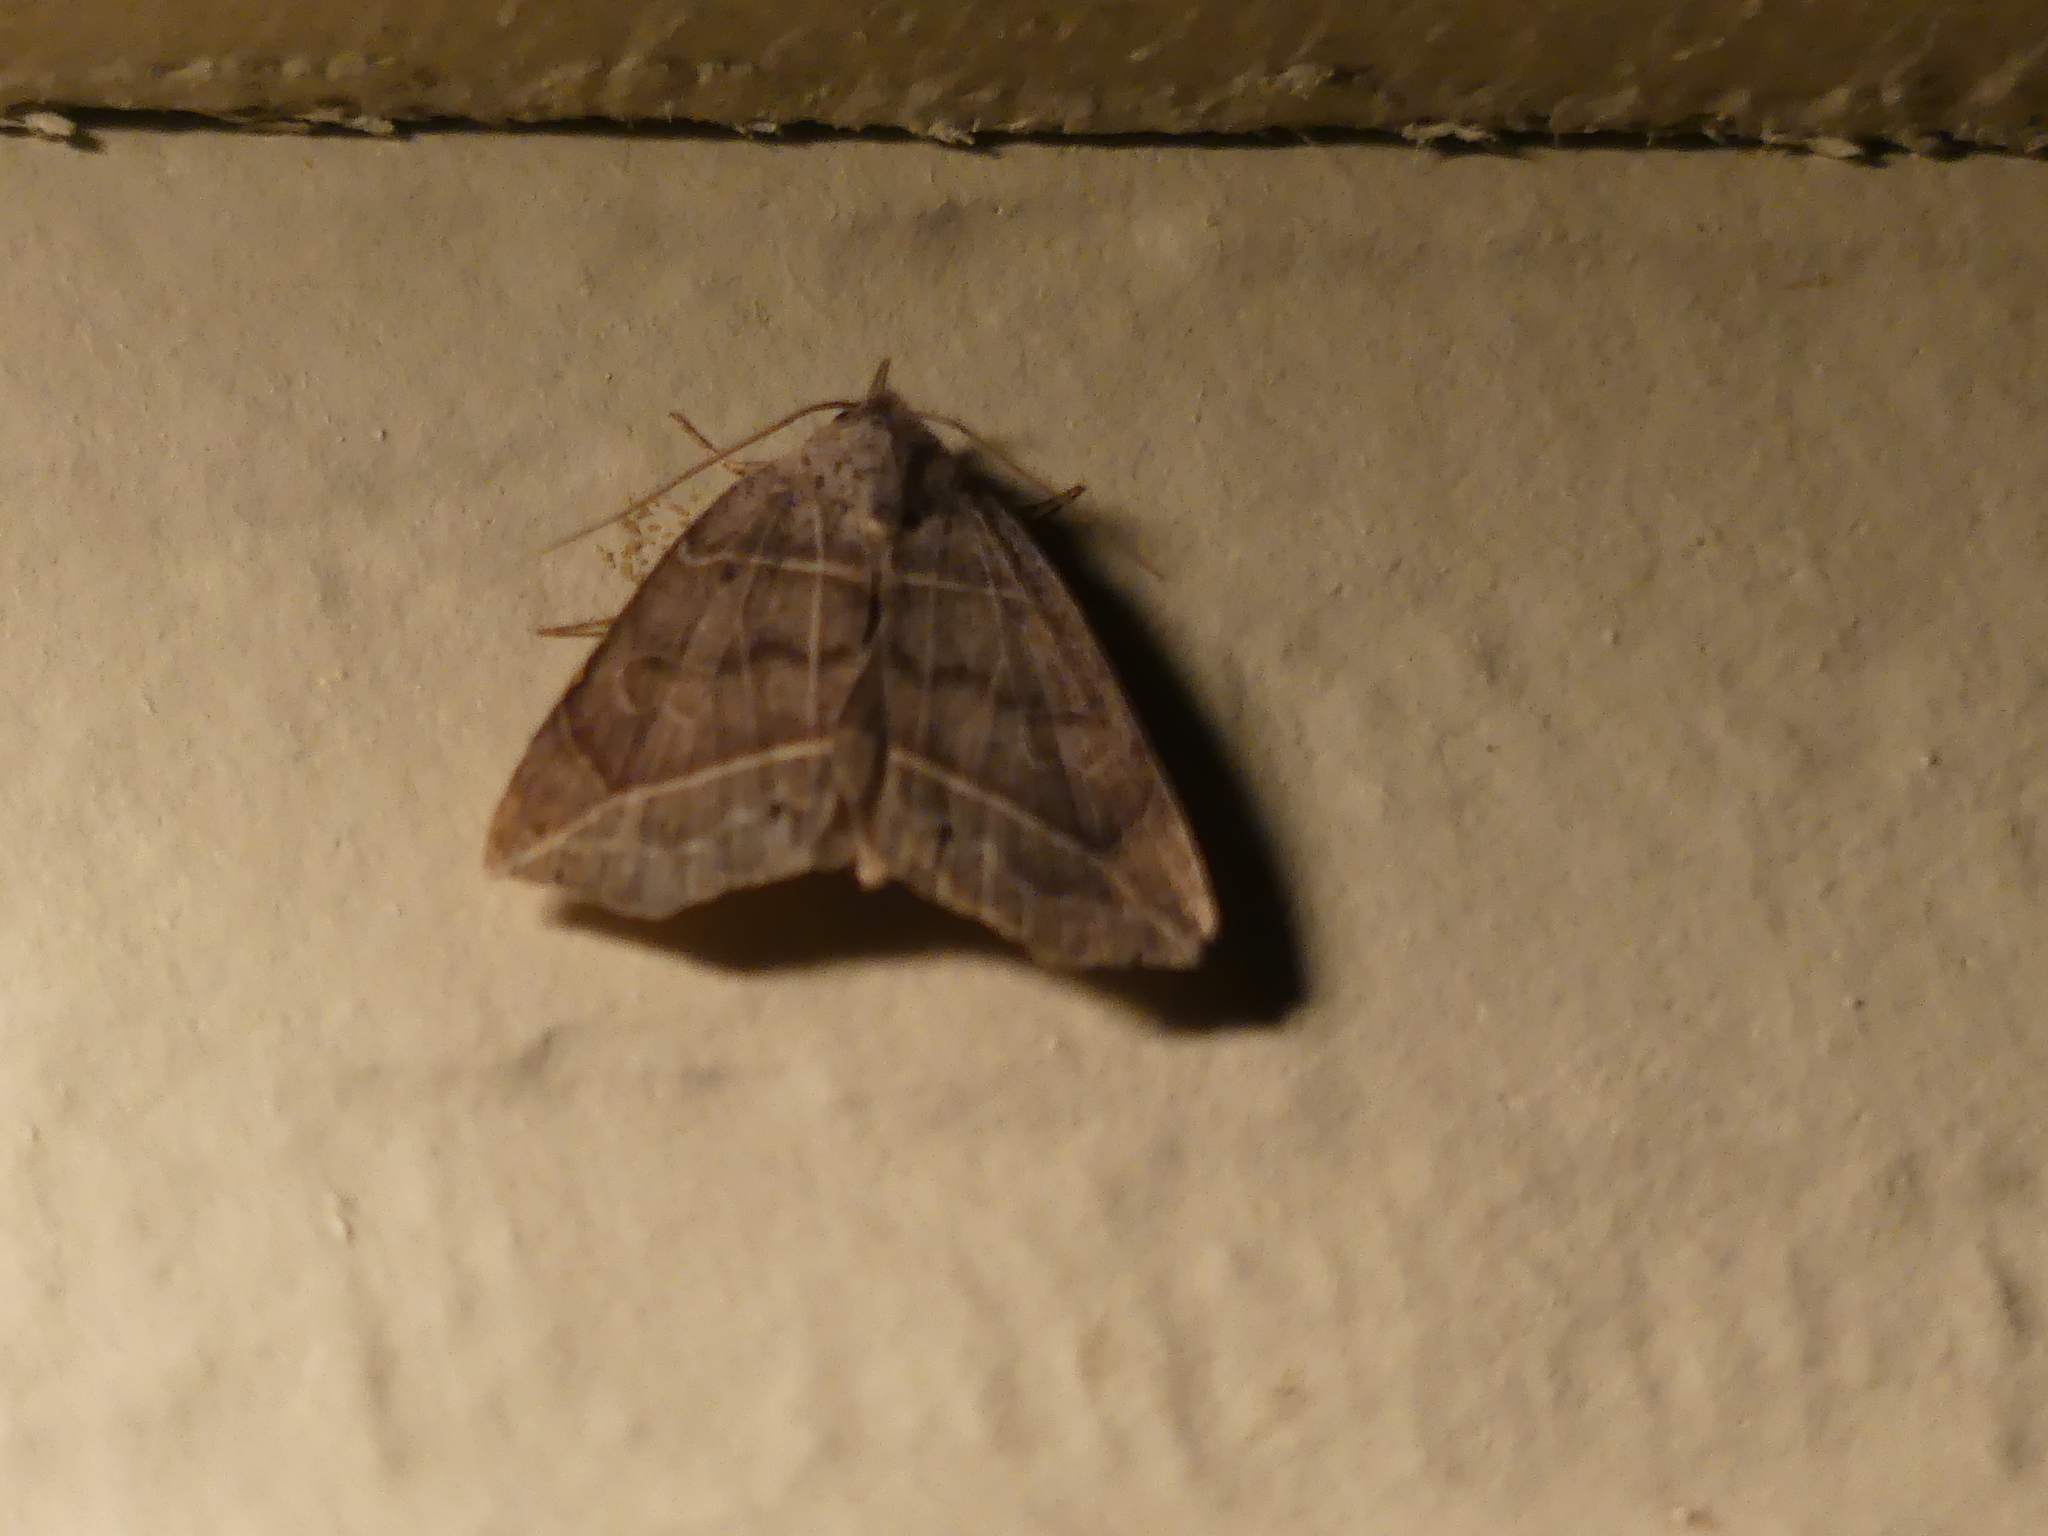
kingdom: Animalia
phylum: Arthropoda
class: Insecta
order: Lepidoptera
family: Erebidae
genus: Isogona
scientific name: Isogona tenuis
